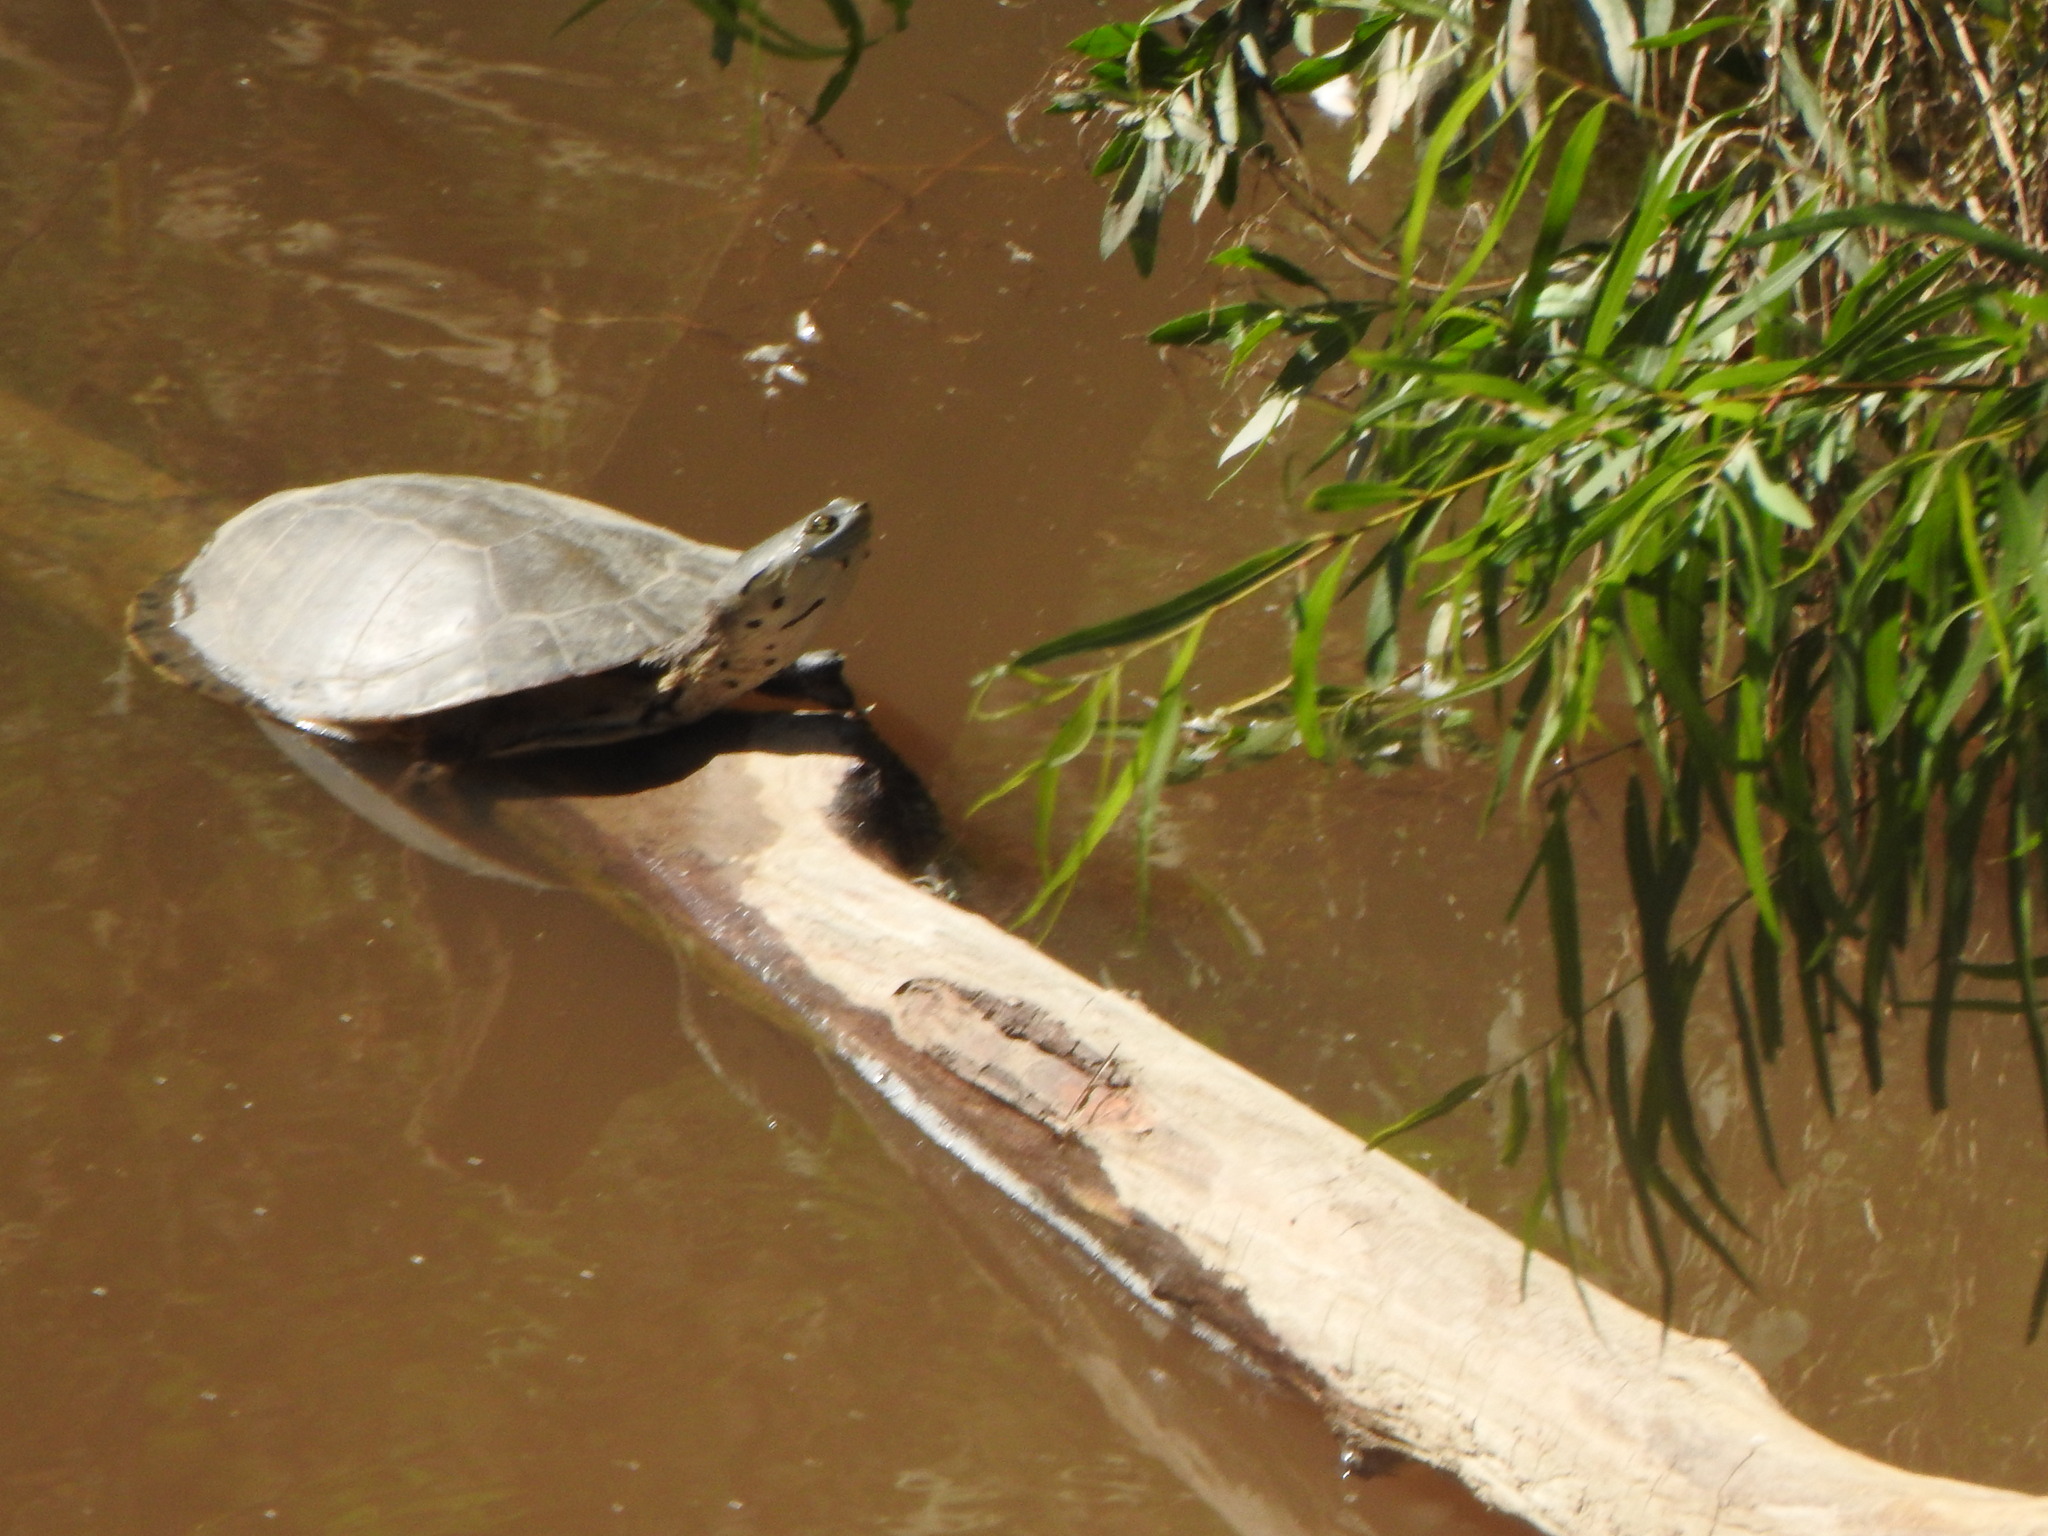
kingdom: Animalia
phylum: Chordata
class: Testudines
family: Chelidae
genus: Phrynops
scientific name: Phrynops hilarii
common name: Side-necked turtle of saint hillaire
